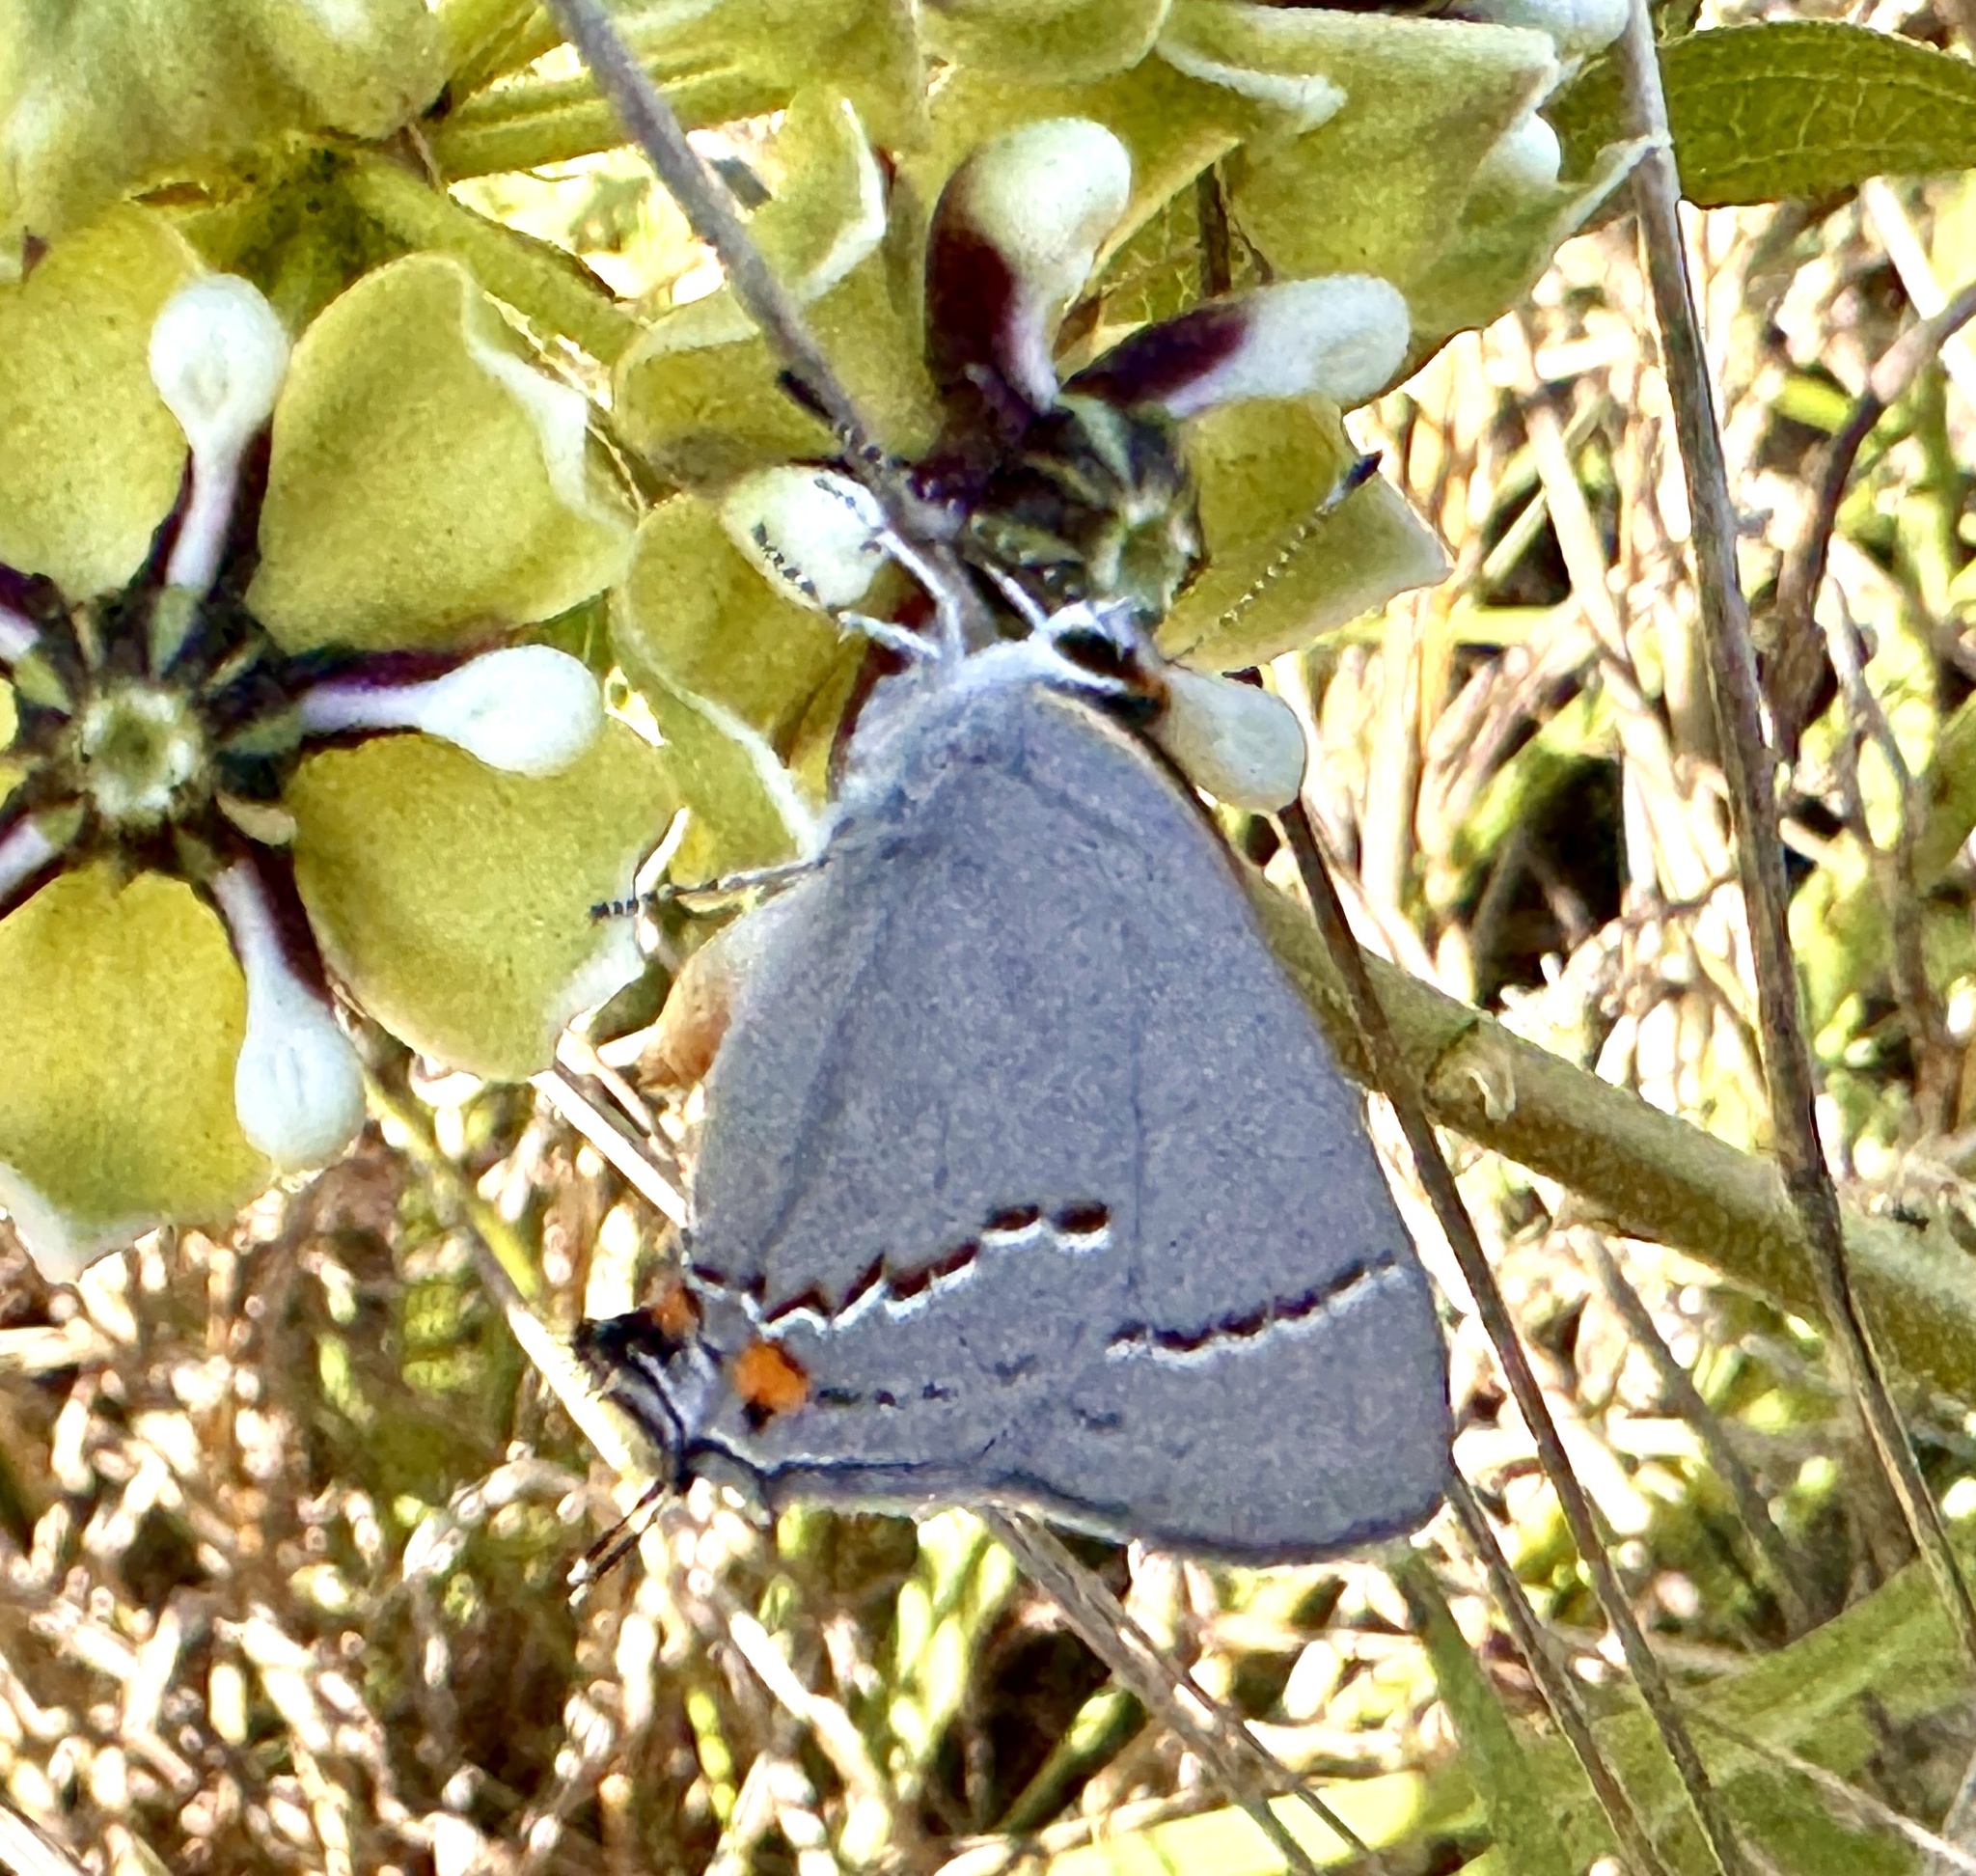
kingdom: Animalia
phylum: Arthropoda
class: Insecta
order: Lepidoptera
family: Lycaenidae
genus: Strymon
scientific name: Strymon melinus
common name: Gray hairstreak
